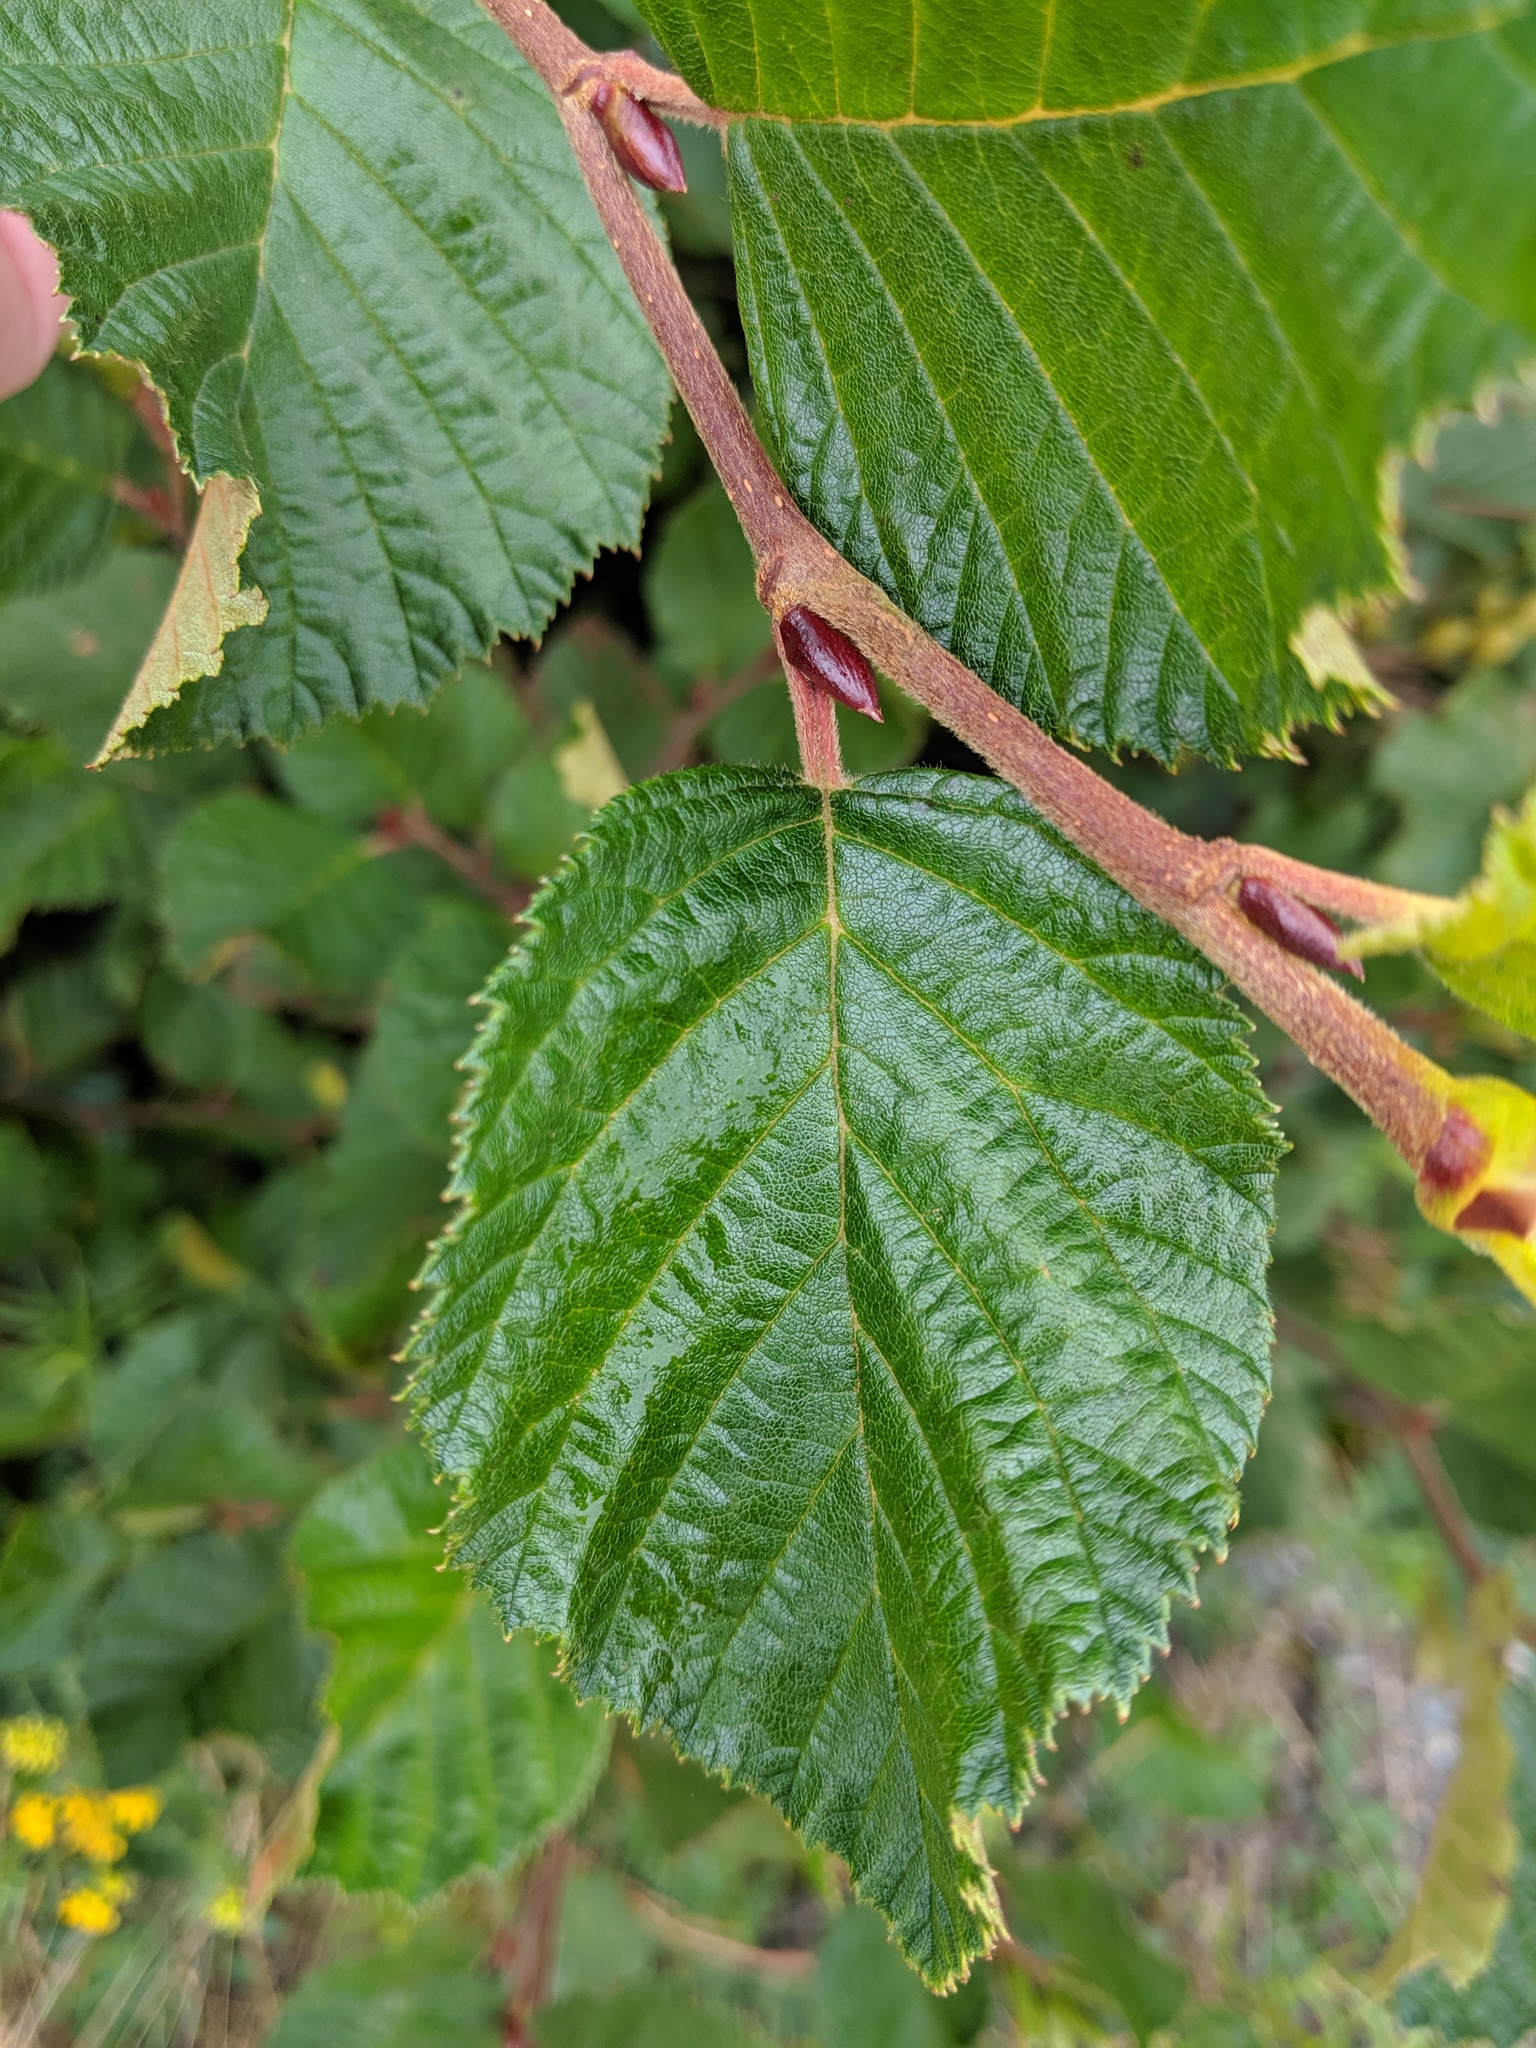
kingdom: Plantae
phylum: Tracheophyta
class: Magnoliopsida
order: Fagales
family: Betulaceae
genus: Alnus
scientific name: Alnus alnobetula
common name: Green alder
